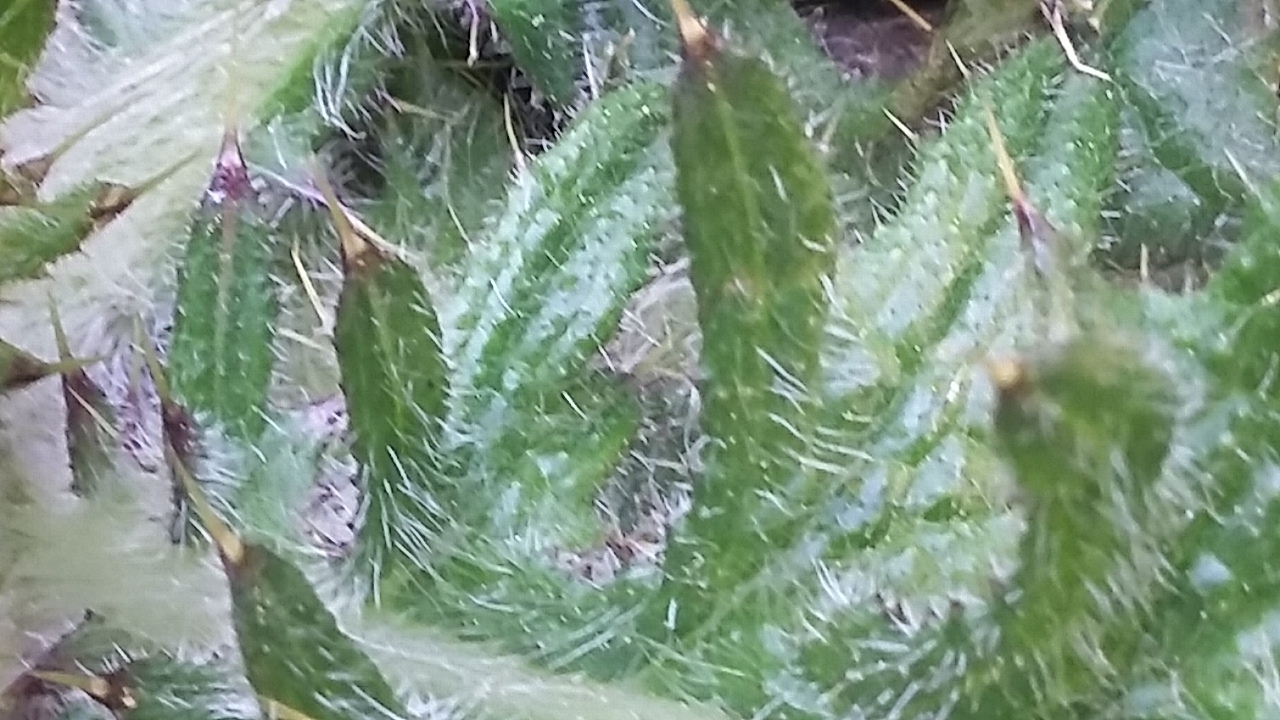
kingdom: Plantae
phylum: Tracheophyta
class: Magnoliopsida
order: Asterales
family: Asteraceae
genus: Cirsium
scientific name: Cirsium vulgare
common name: Bull thistle
